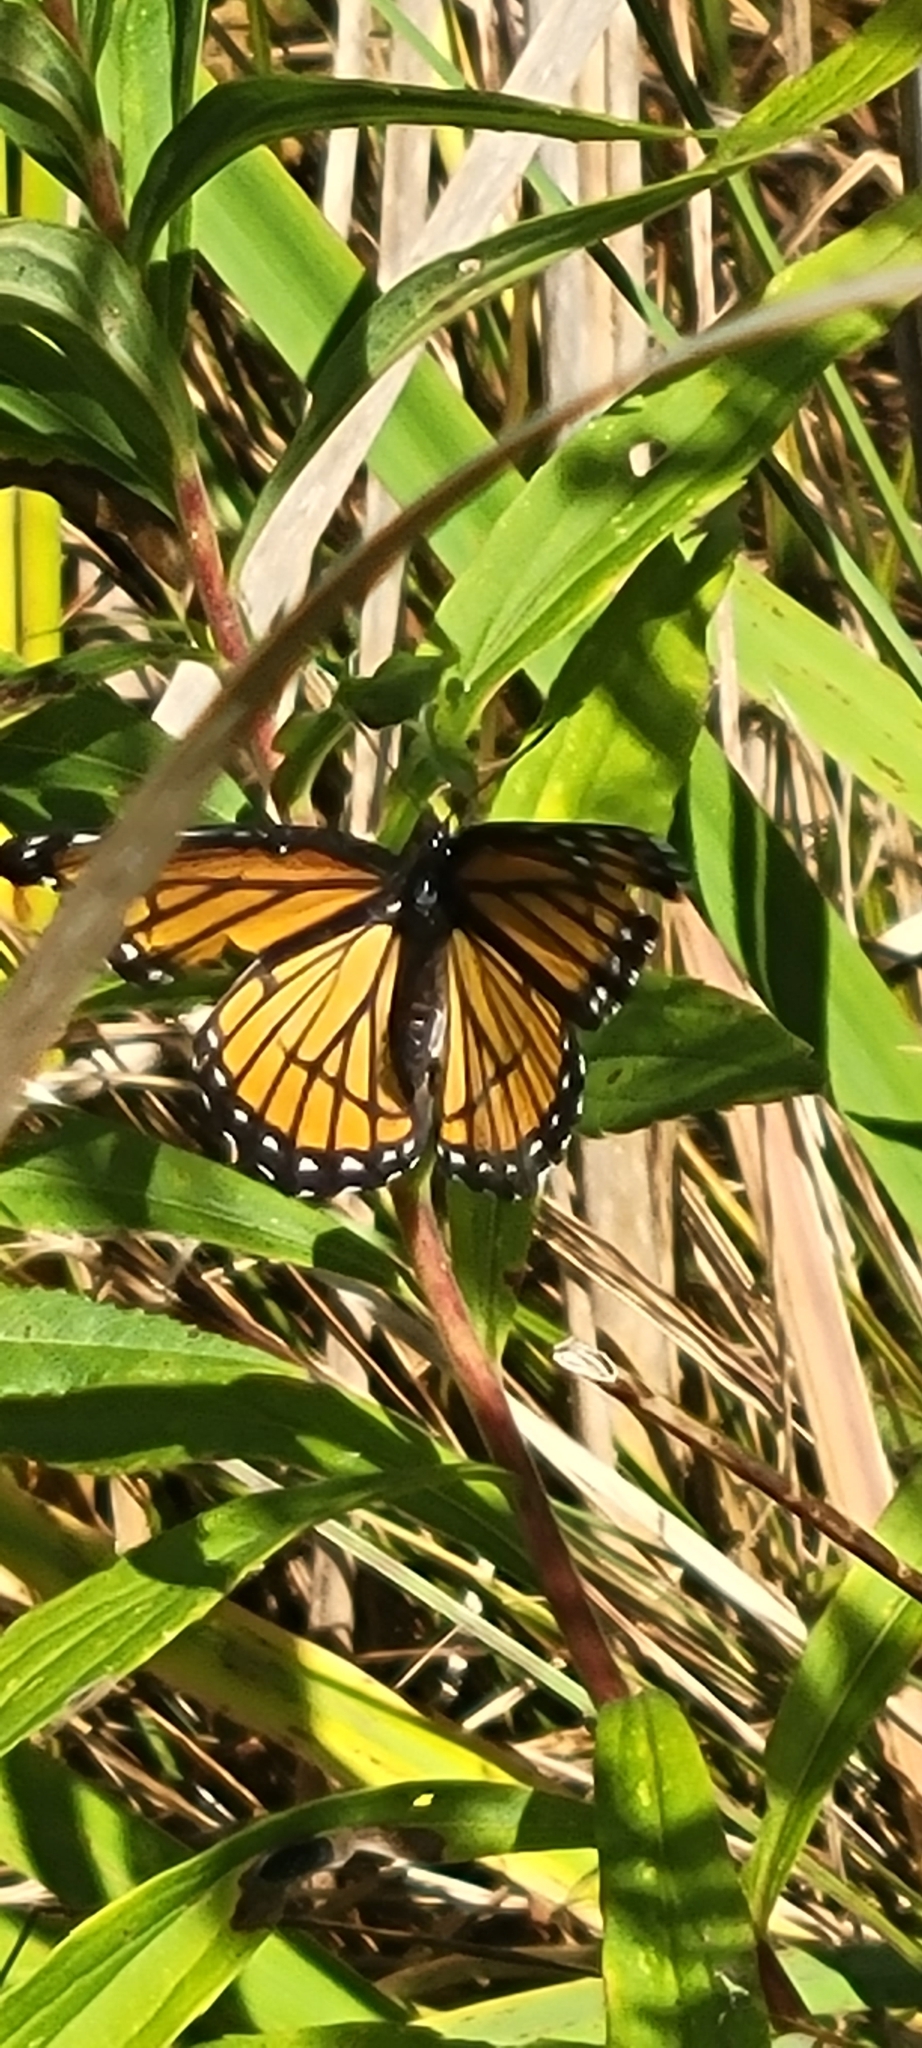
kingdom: Animalia
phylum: Arthropoda
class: Insecta
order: Lepidoptera
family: Nymphalidae
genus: Limenitis
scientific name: Limenitis archippus
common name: Viceroy
